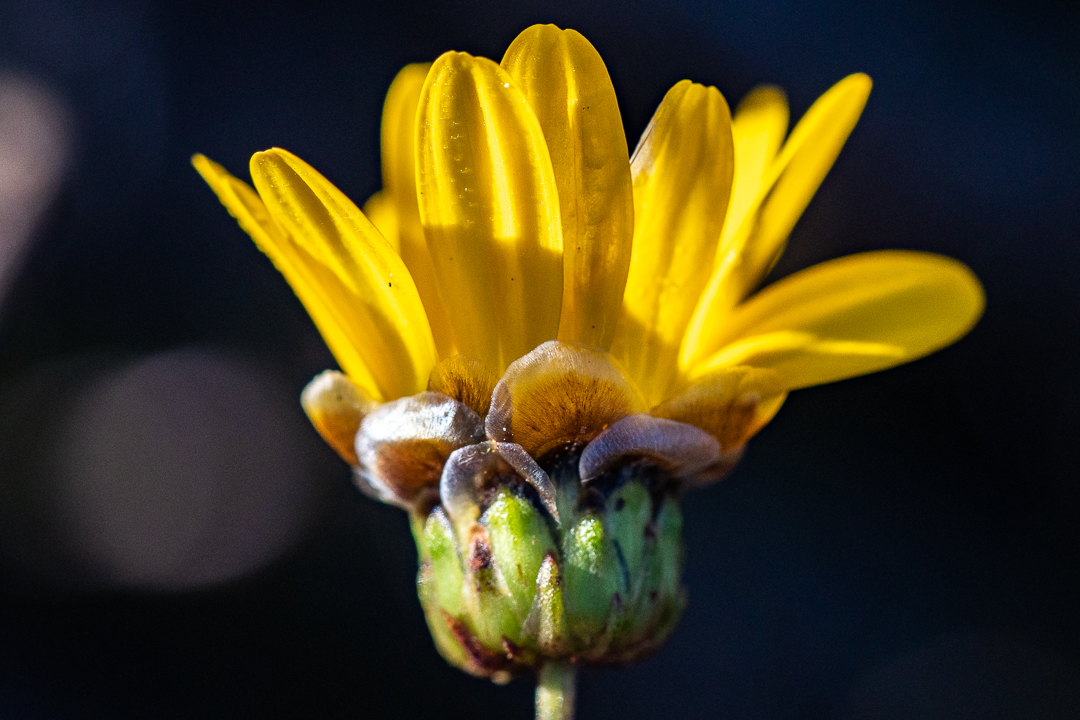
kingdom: Plantae
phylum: Tracheophyta
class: Magnoliopsida
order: Asterales
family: Asteraceae
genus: Ursinia
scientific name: Ursinia paleacea
